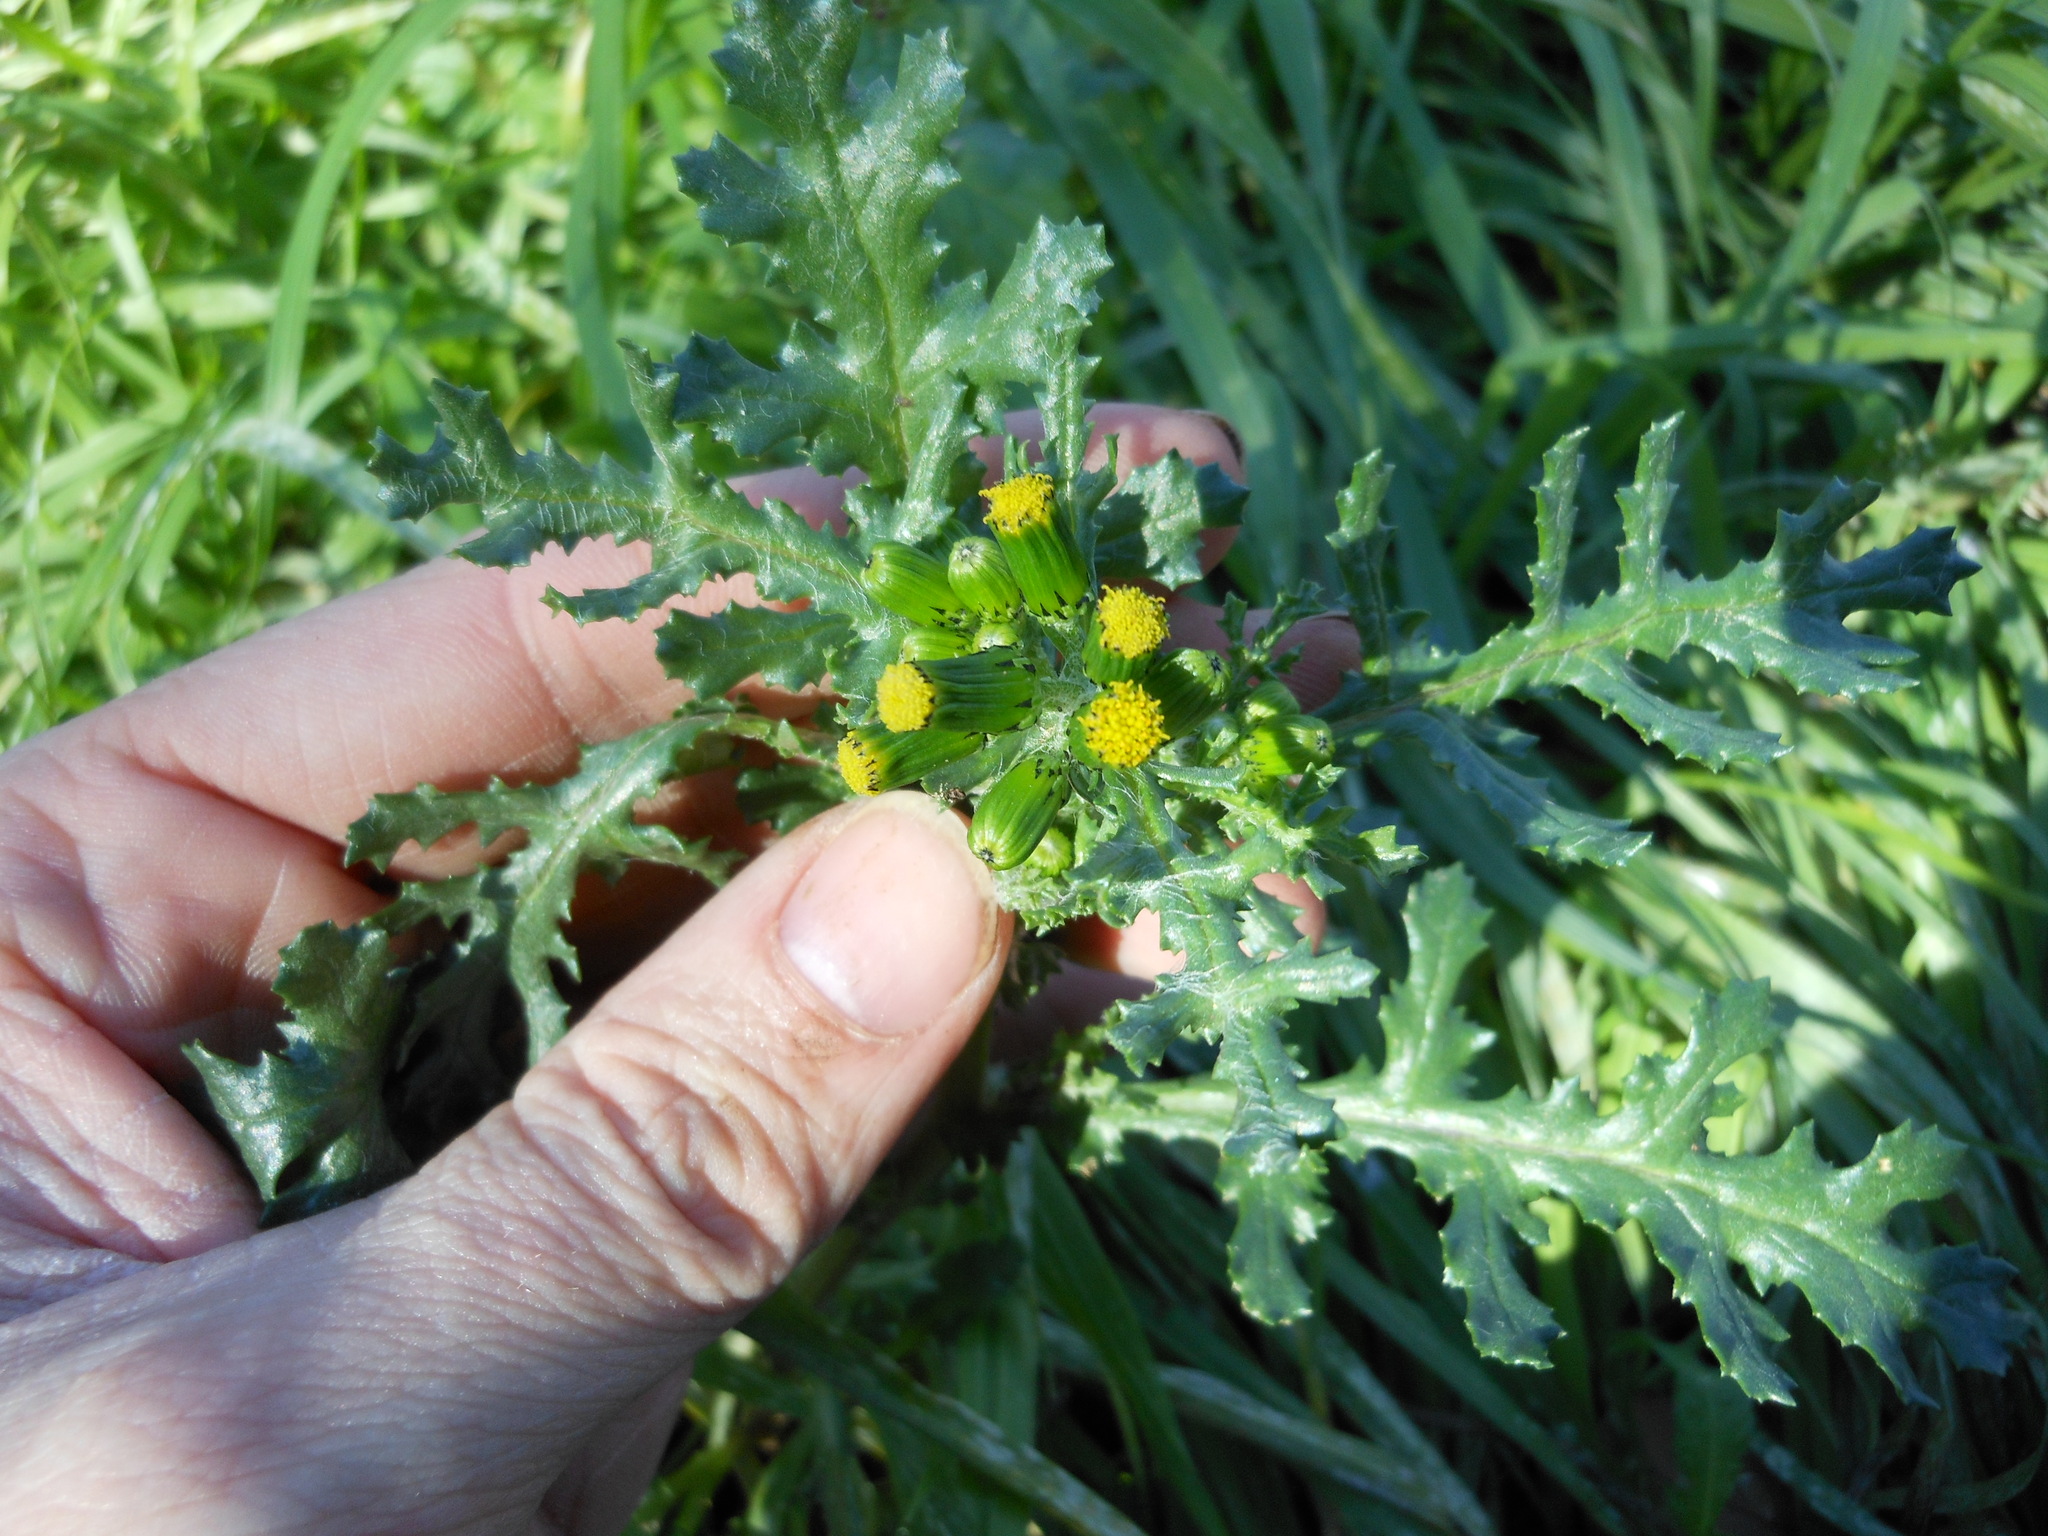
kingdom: Plantae
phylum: Tracheophyta
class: Magnoliopsida
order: Asterales
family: Asteraceae
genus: Senecio
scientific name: Senecio vulgaris
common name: Old-man-in-the-spring
